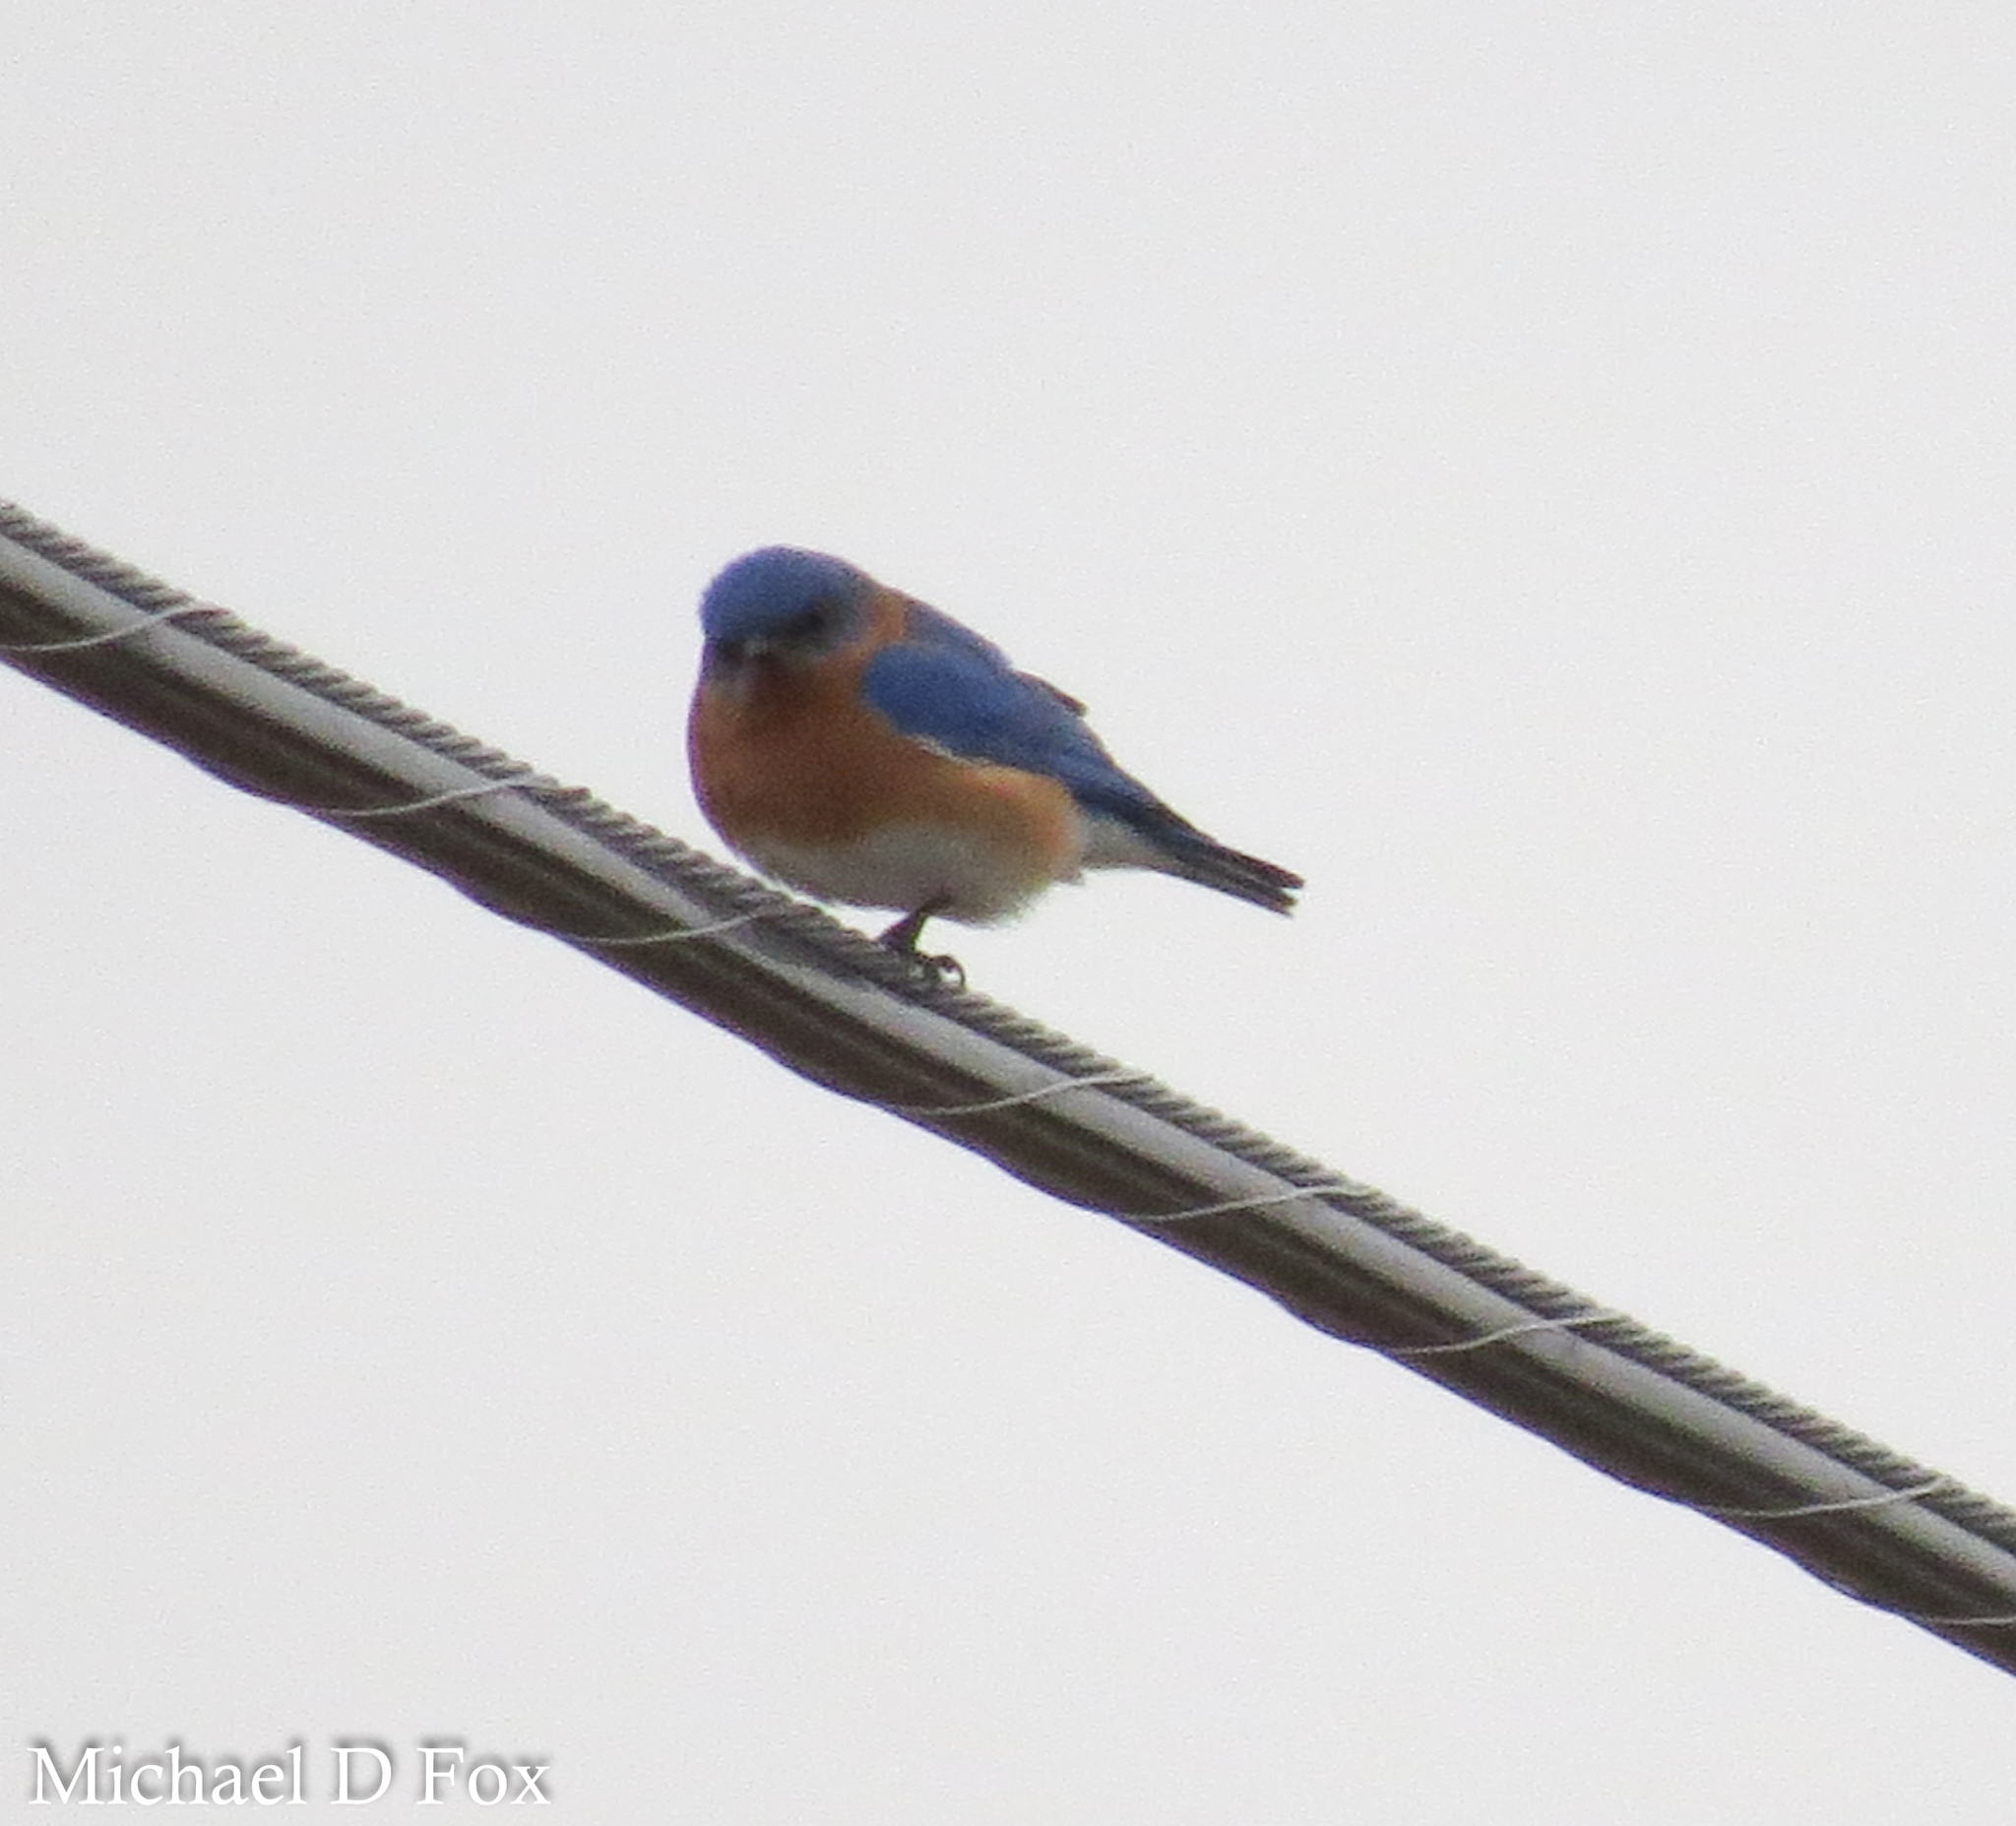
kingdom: Animalia
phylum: Chordata
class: Aves
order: Passeriformes
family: Turdidae
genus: Sialia
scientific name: Sialia sialis
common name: Eastern bluebird
